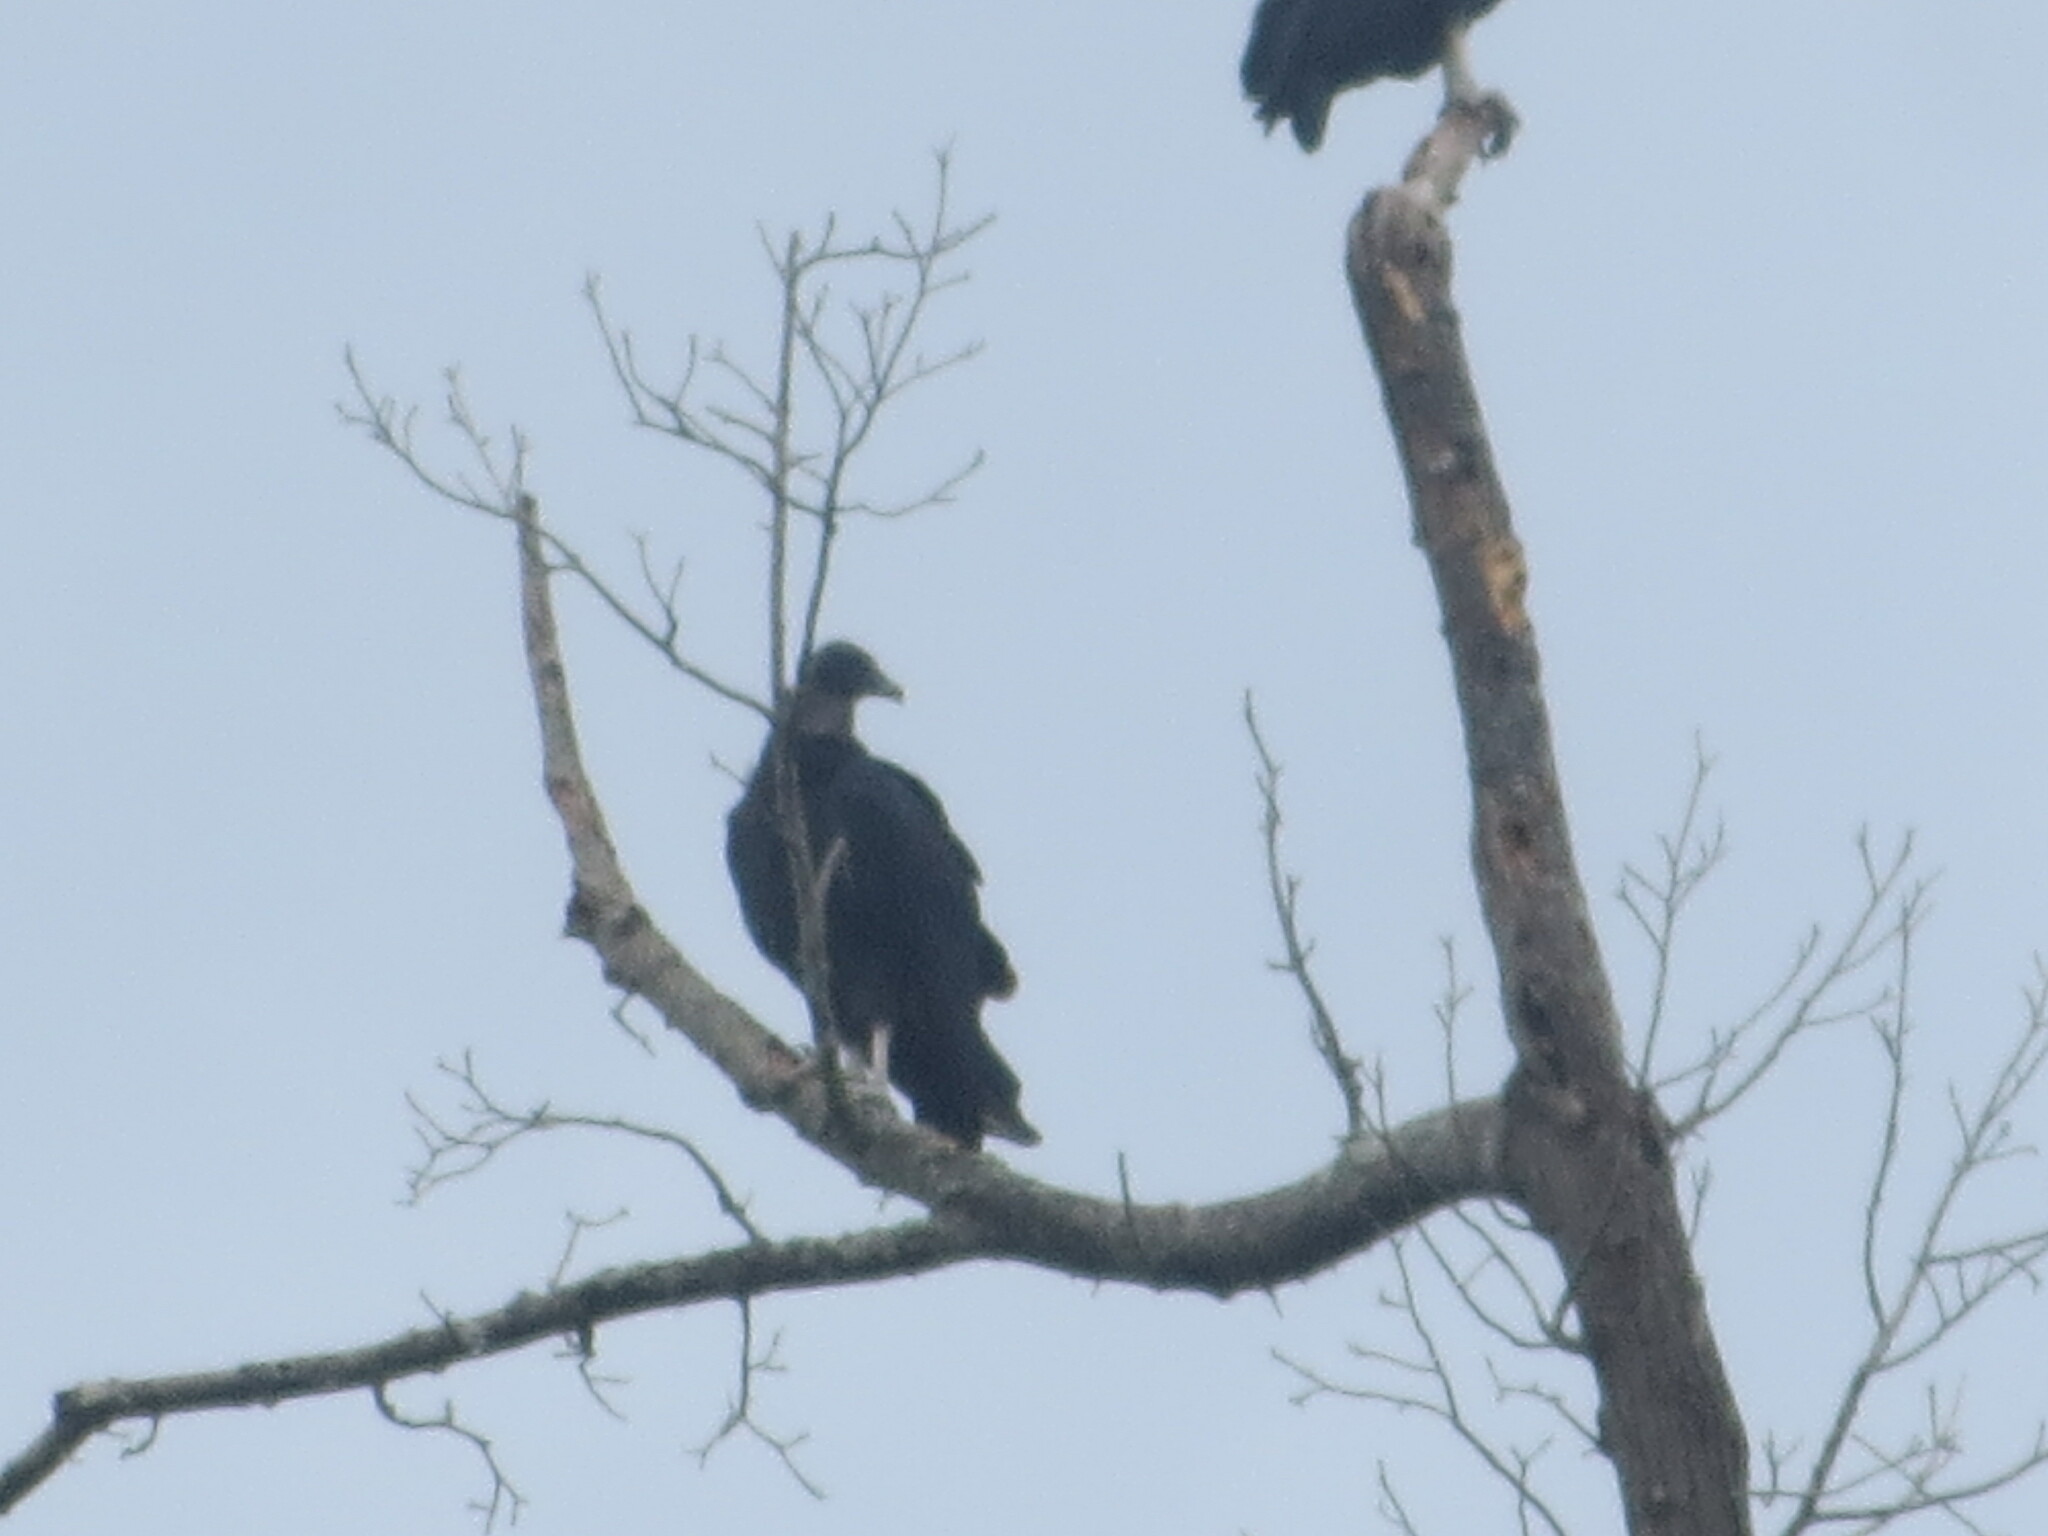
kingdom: Animalia
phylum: Chordata
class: Aves
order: Accipitriformes
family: Cathartidae
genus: Coragyps
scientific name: Coragyps atratus
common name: Black vulture
